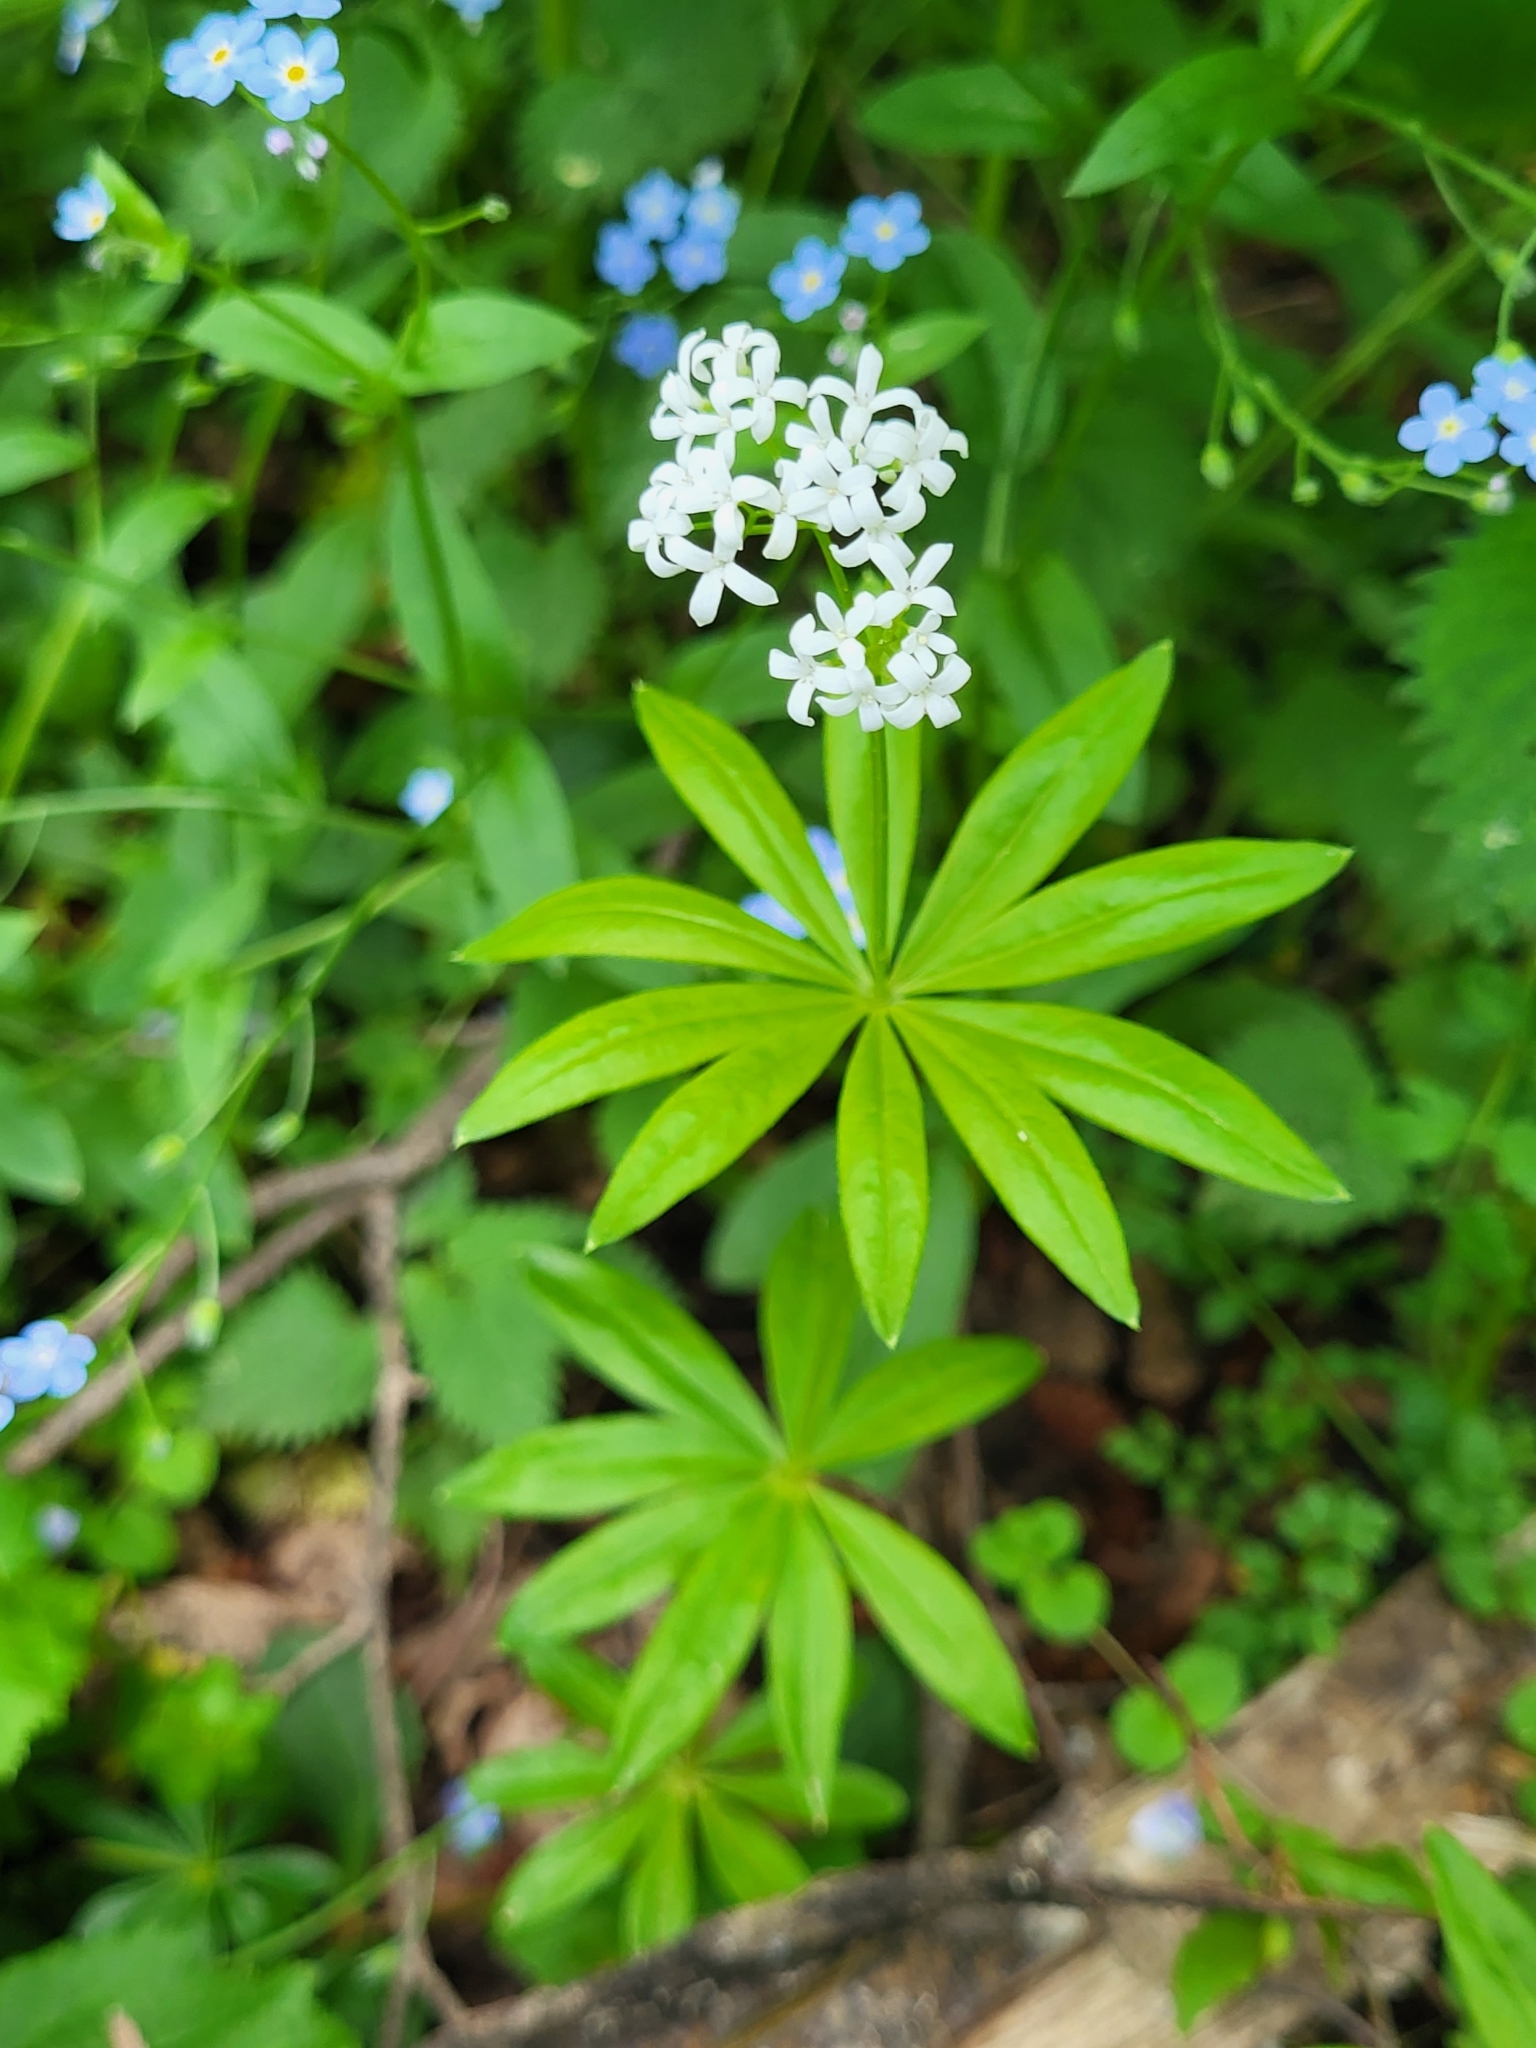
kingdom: Plantae
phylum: Tracheophyta
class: Magnoliopsida
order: Gentianales
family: Rubiaceae
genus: Galium
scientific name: Galium odoratum
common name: Sweet woodruff
